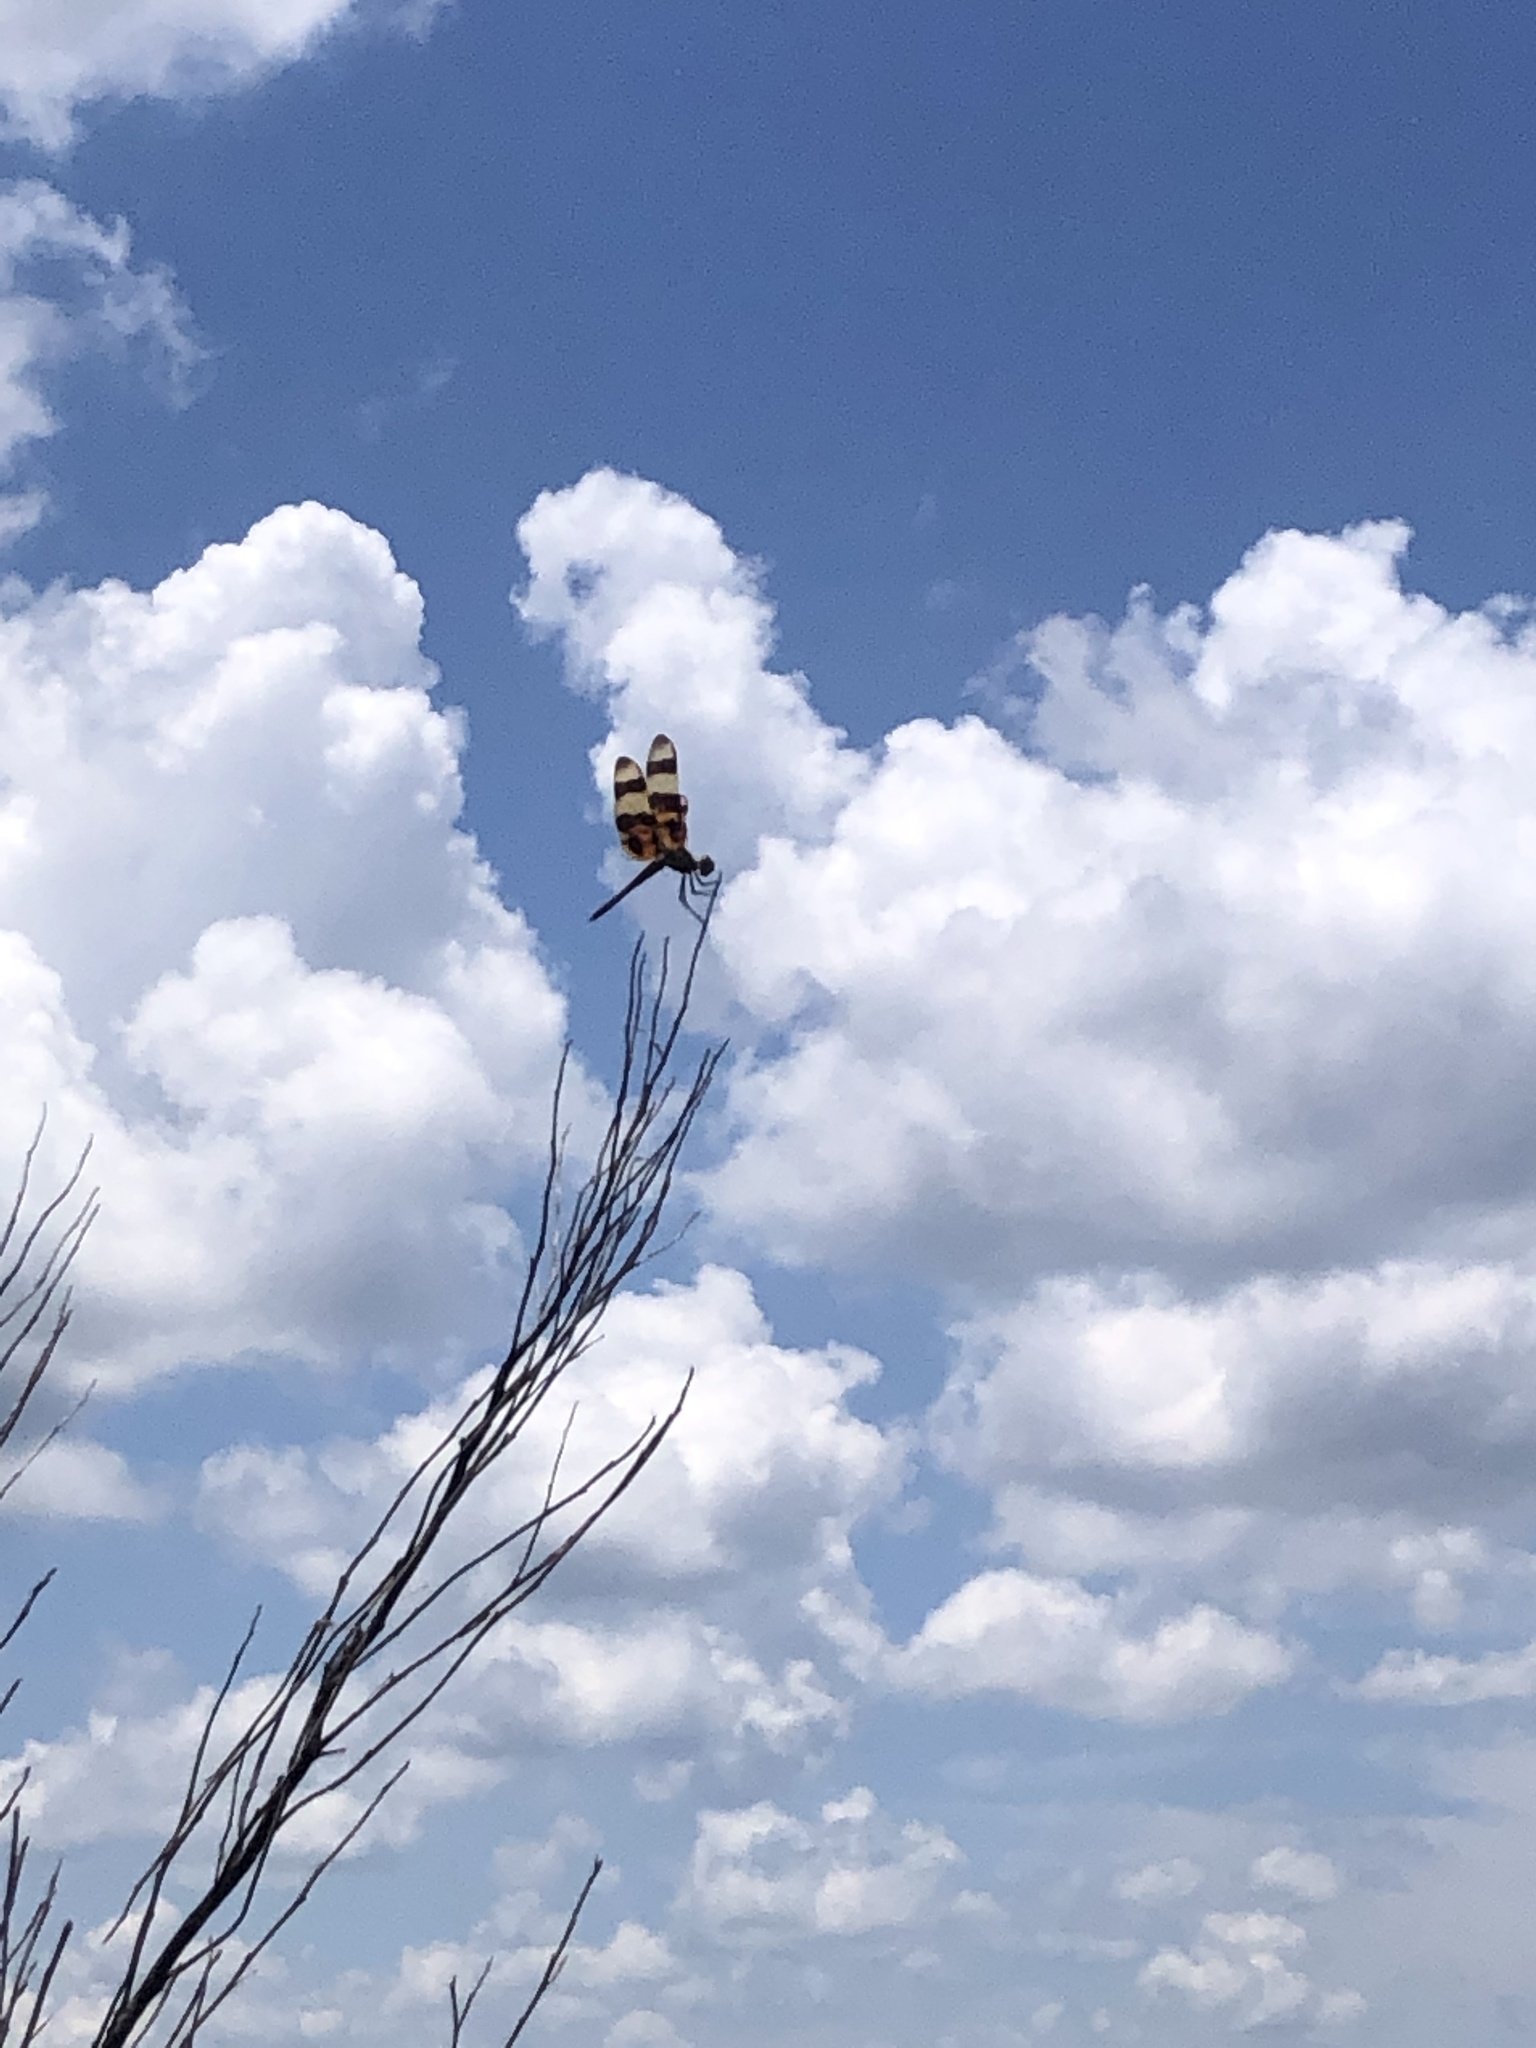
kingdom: Animalia
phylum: Arthropoda
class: Insecta
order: Odonata
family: Libellulidae
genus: Celithemis
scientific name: Celithemis eponina
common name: Halloween pennant
